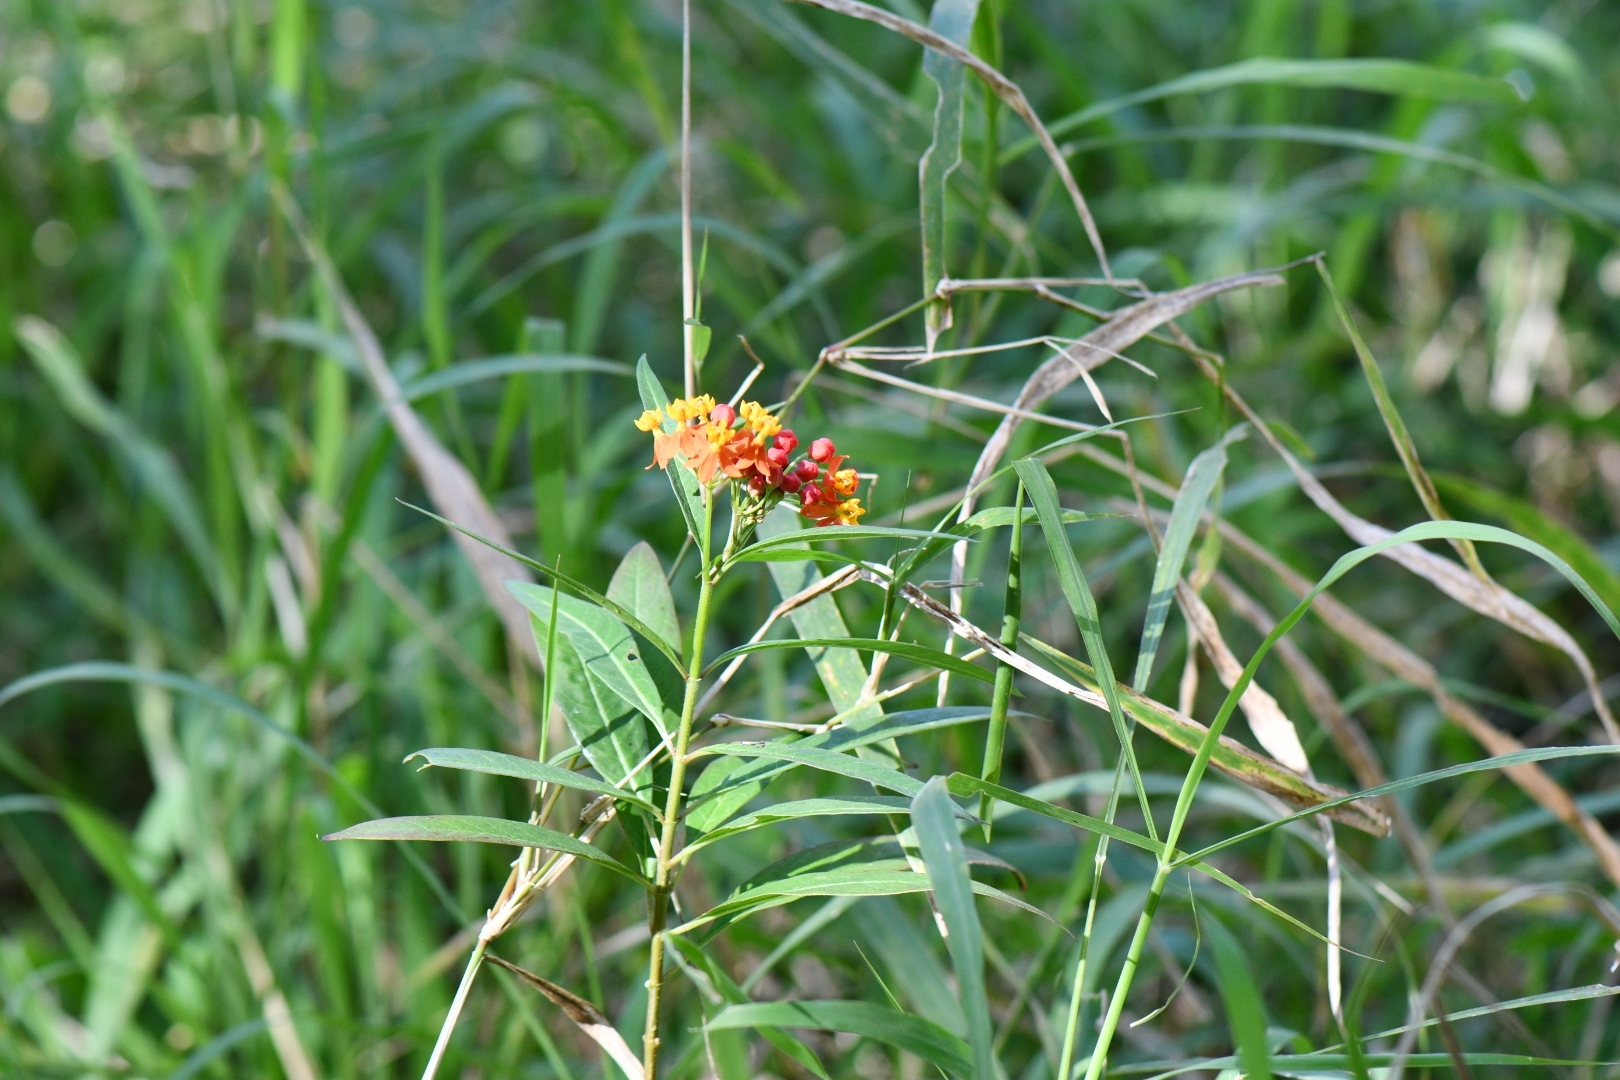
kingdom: Plantae
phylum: Tracheophyta
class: Magnoliopsida
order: Gentianales
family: Apocynaceae
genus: Asclepias
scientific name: Asclepias curassavica
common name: Bloodflower
